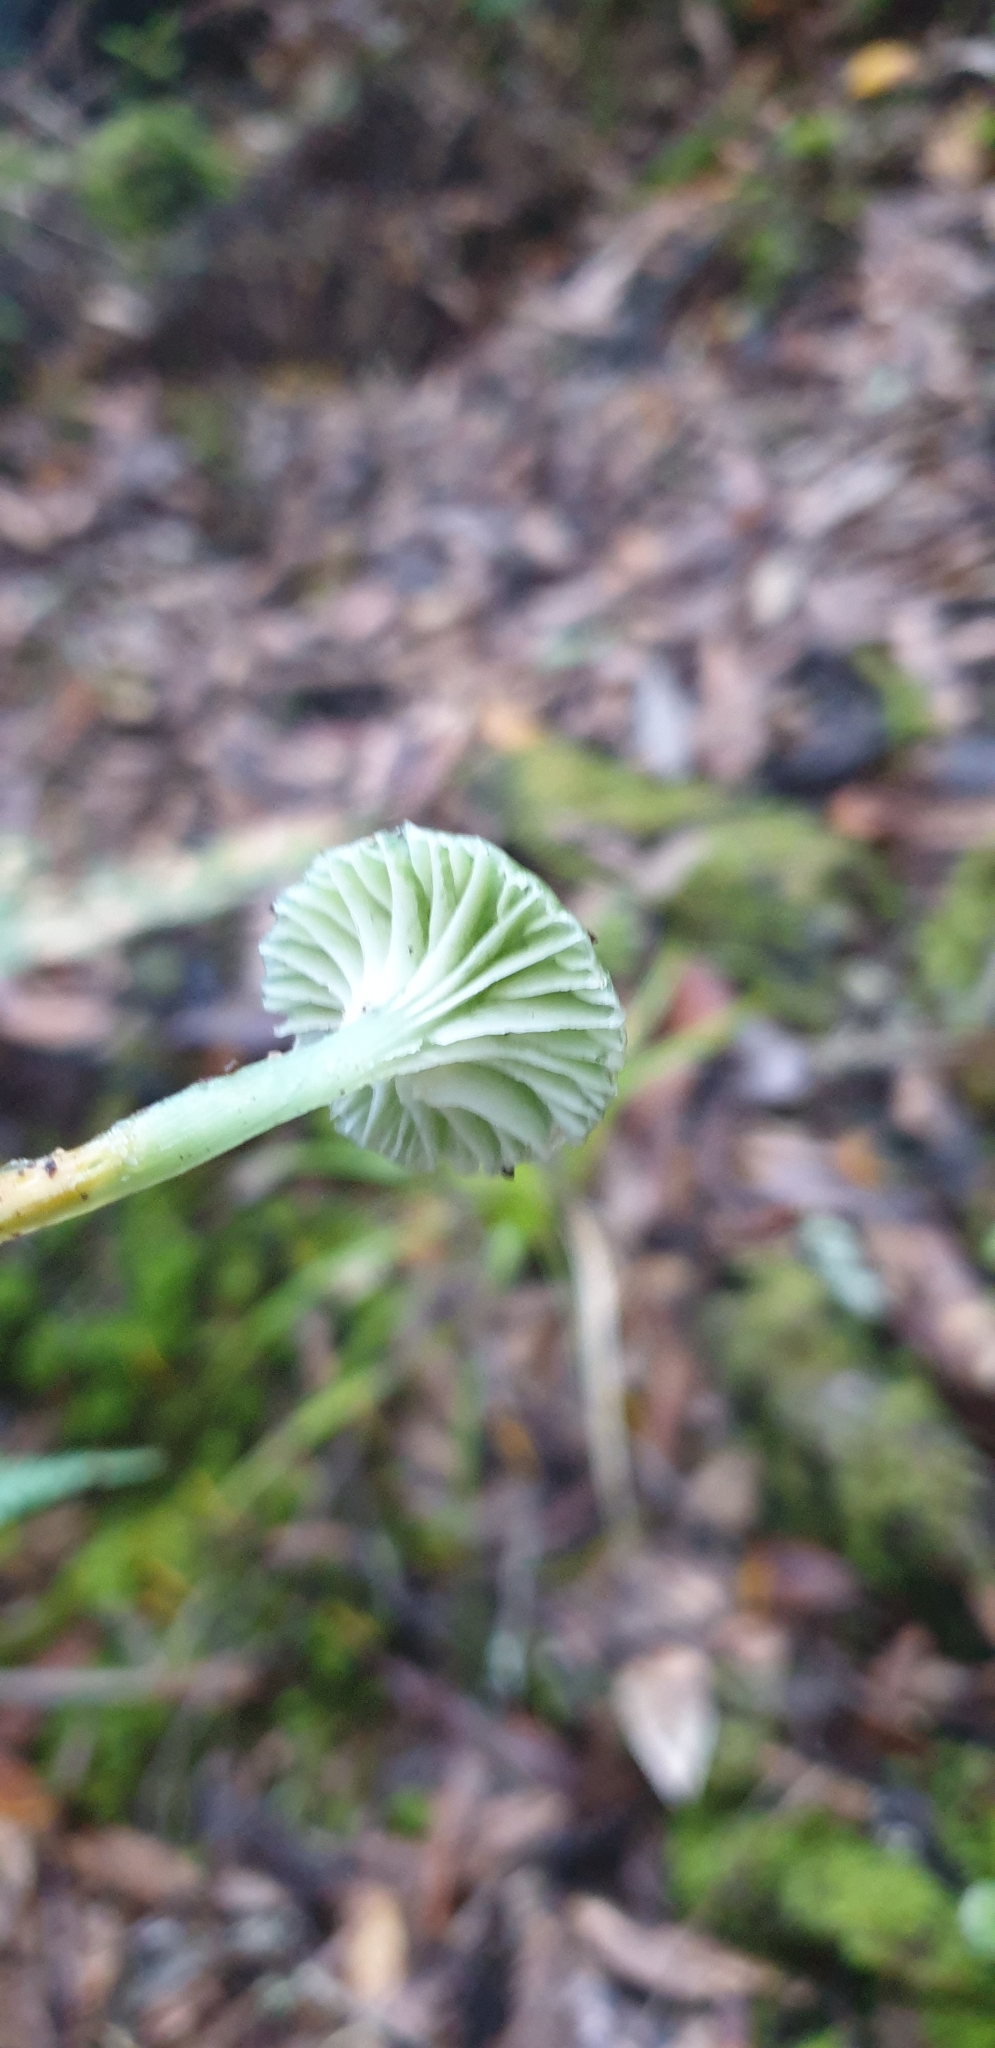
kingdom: Fungi
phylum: Basidiomycota
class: Agaricomycetes
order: Agaricales
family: Hygrophoraceae
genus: Gliophorus
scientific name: Gliophorus viridis
